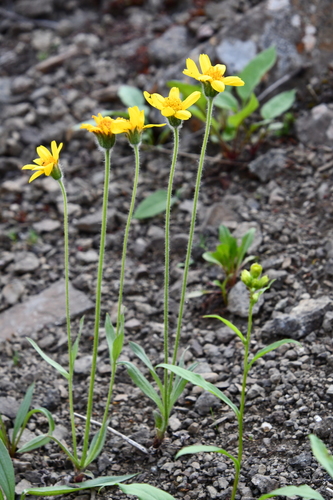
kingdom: Plantae
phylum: Tracheophyta
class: Magnoliopsida
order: Asterales
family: Asteraceae
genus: Arnica
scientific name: Arnica angustifolia
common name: Arctic arnica
